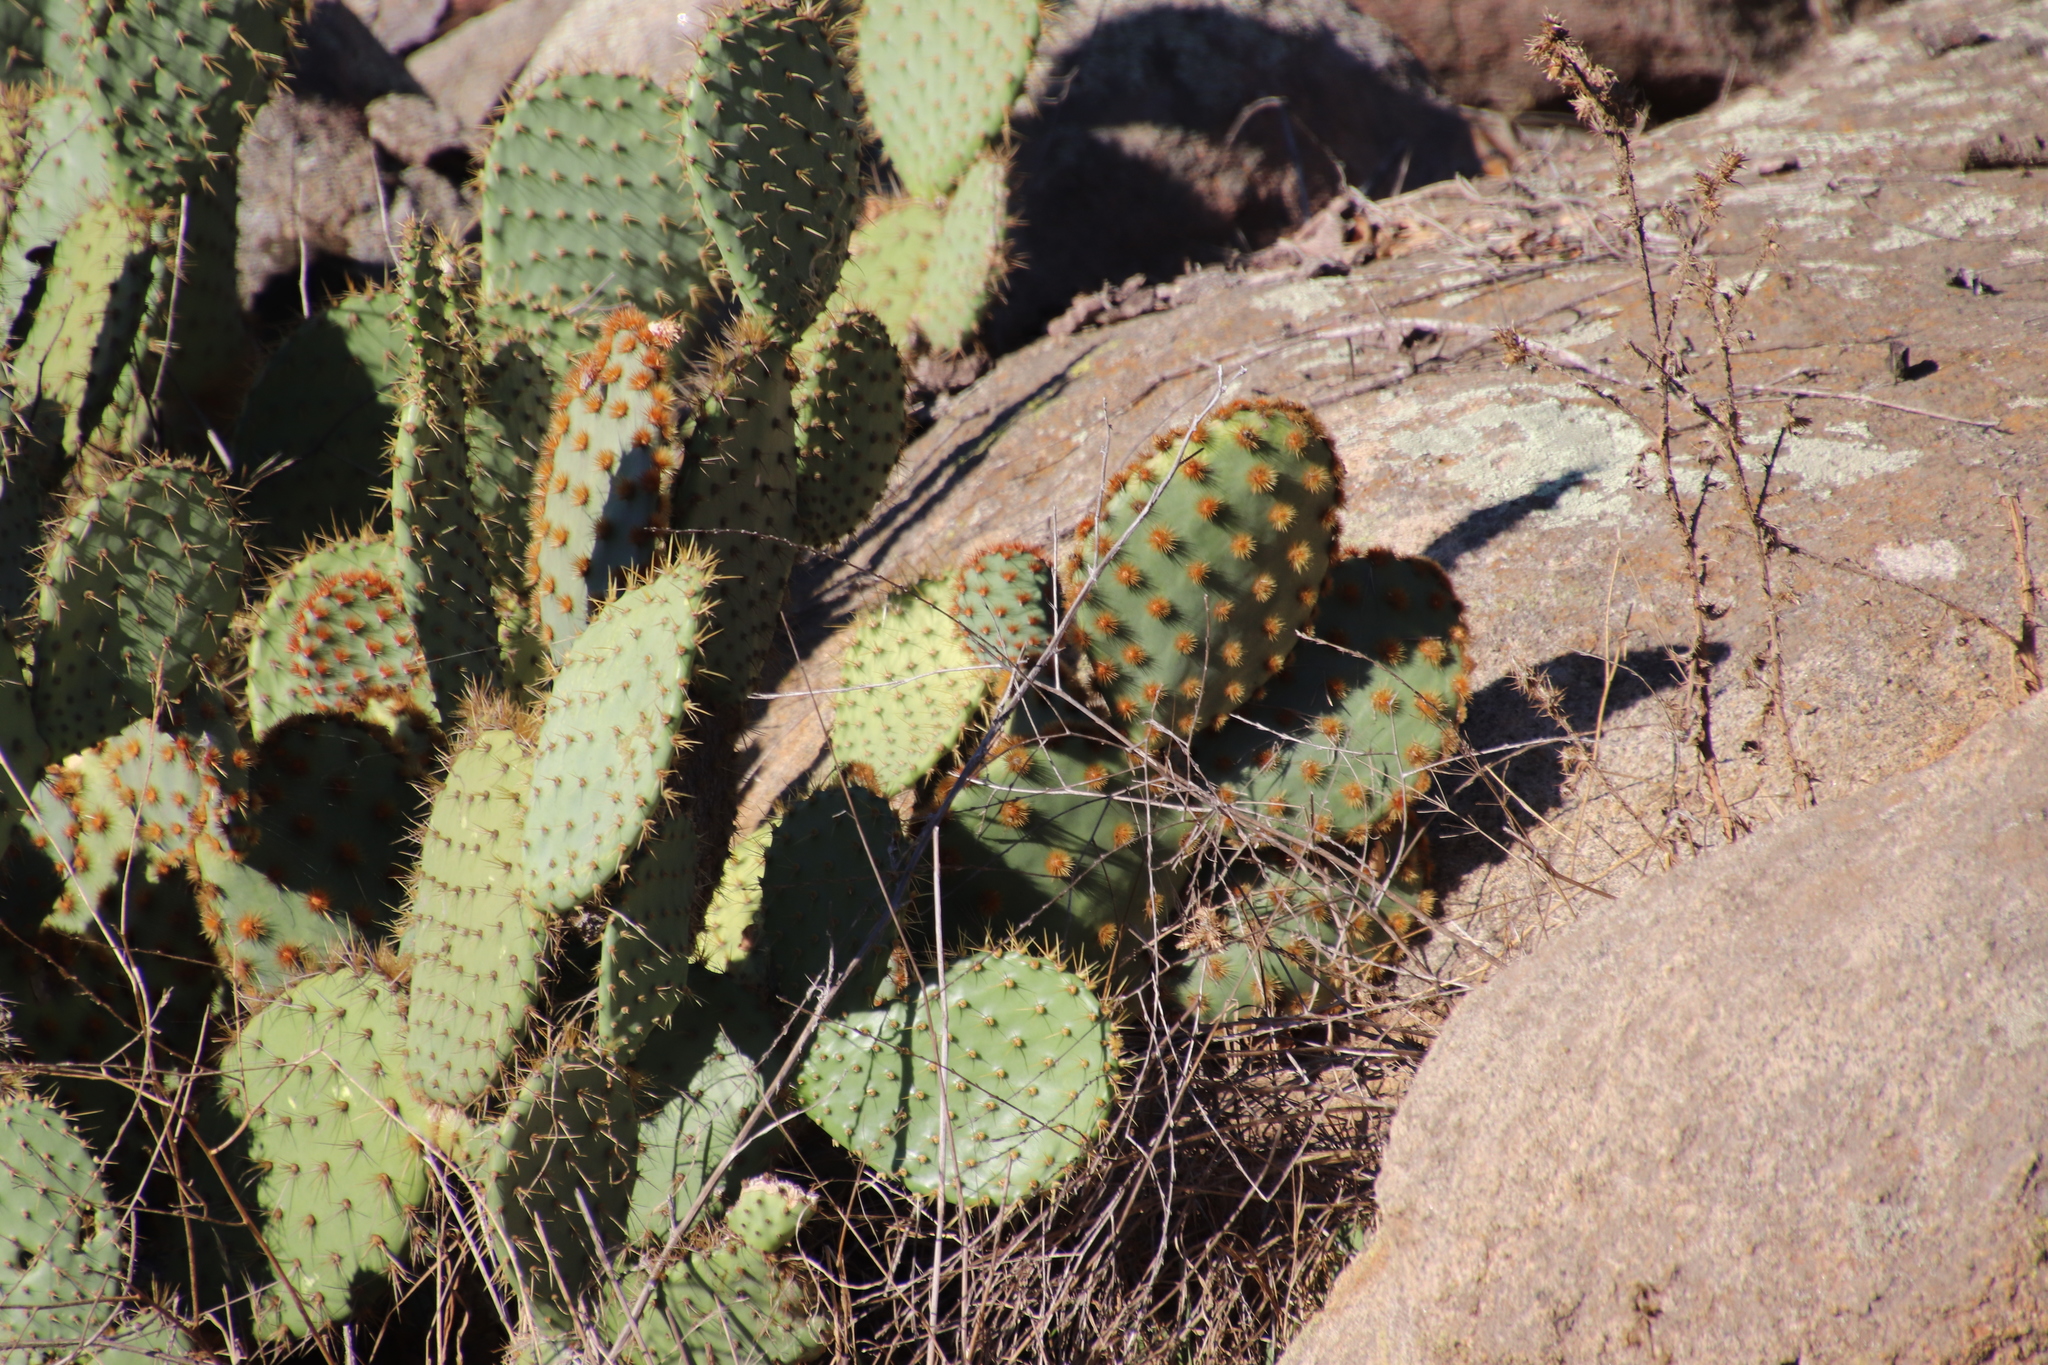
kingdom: Plantae
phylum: Tracheophyta
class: Magnoliopsida
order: Caryophyllales
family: Cactaceae
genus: Opuntia
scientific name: Opuntia oricola
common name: Chaparral prickly-pear
